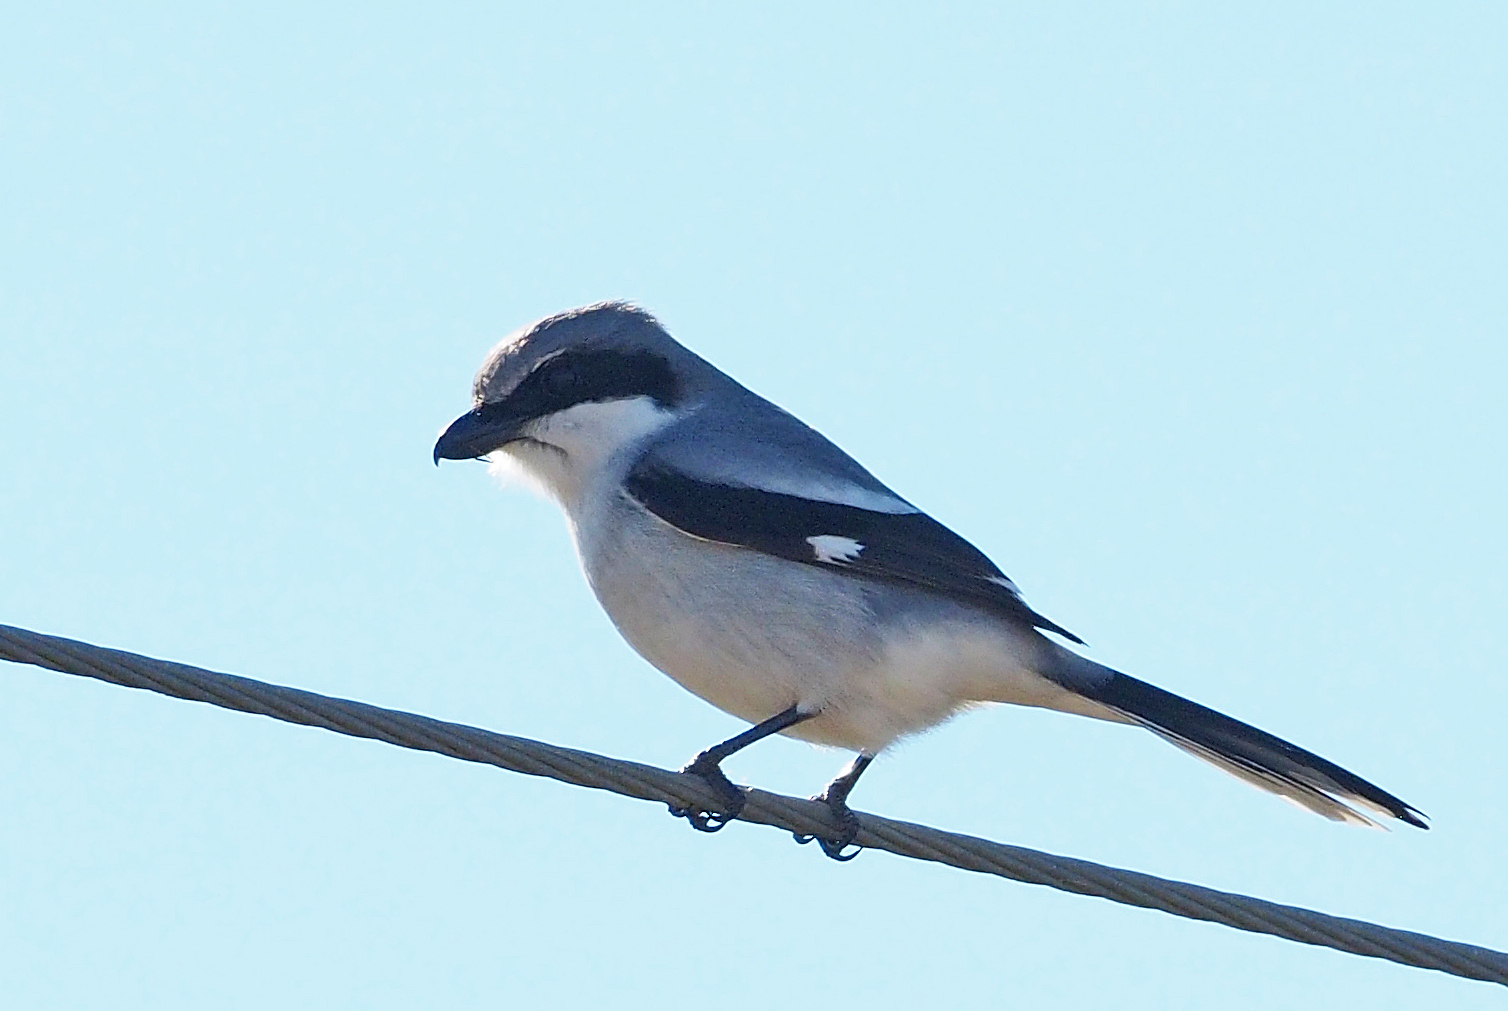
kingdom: Animalia
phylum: Chordata
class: Aves
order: Passeriformes
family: Laniidae
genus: Lanius
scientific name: Lanius ludovicianus
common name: Loggerhead shrike
